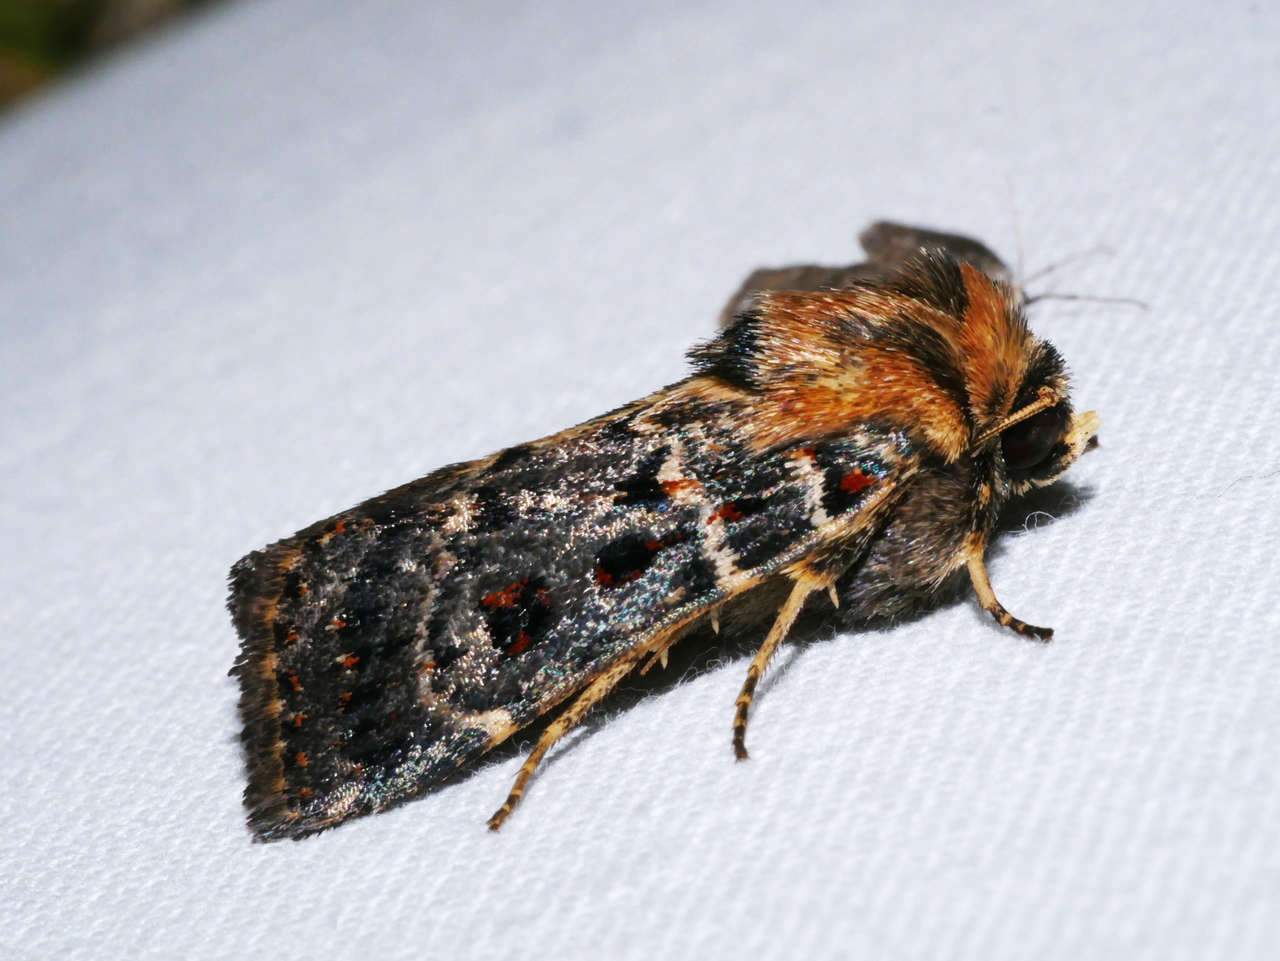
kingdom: Animalia
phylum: Arthropoda
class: Insecta
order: Lepidoptera
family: Noctuidae
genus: Proteuxoa
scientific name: Proteuxoa sanguinipuncta
